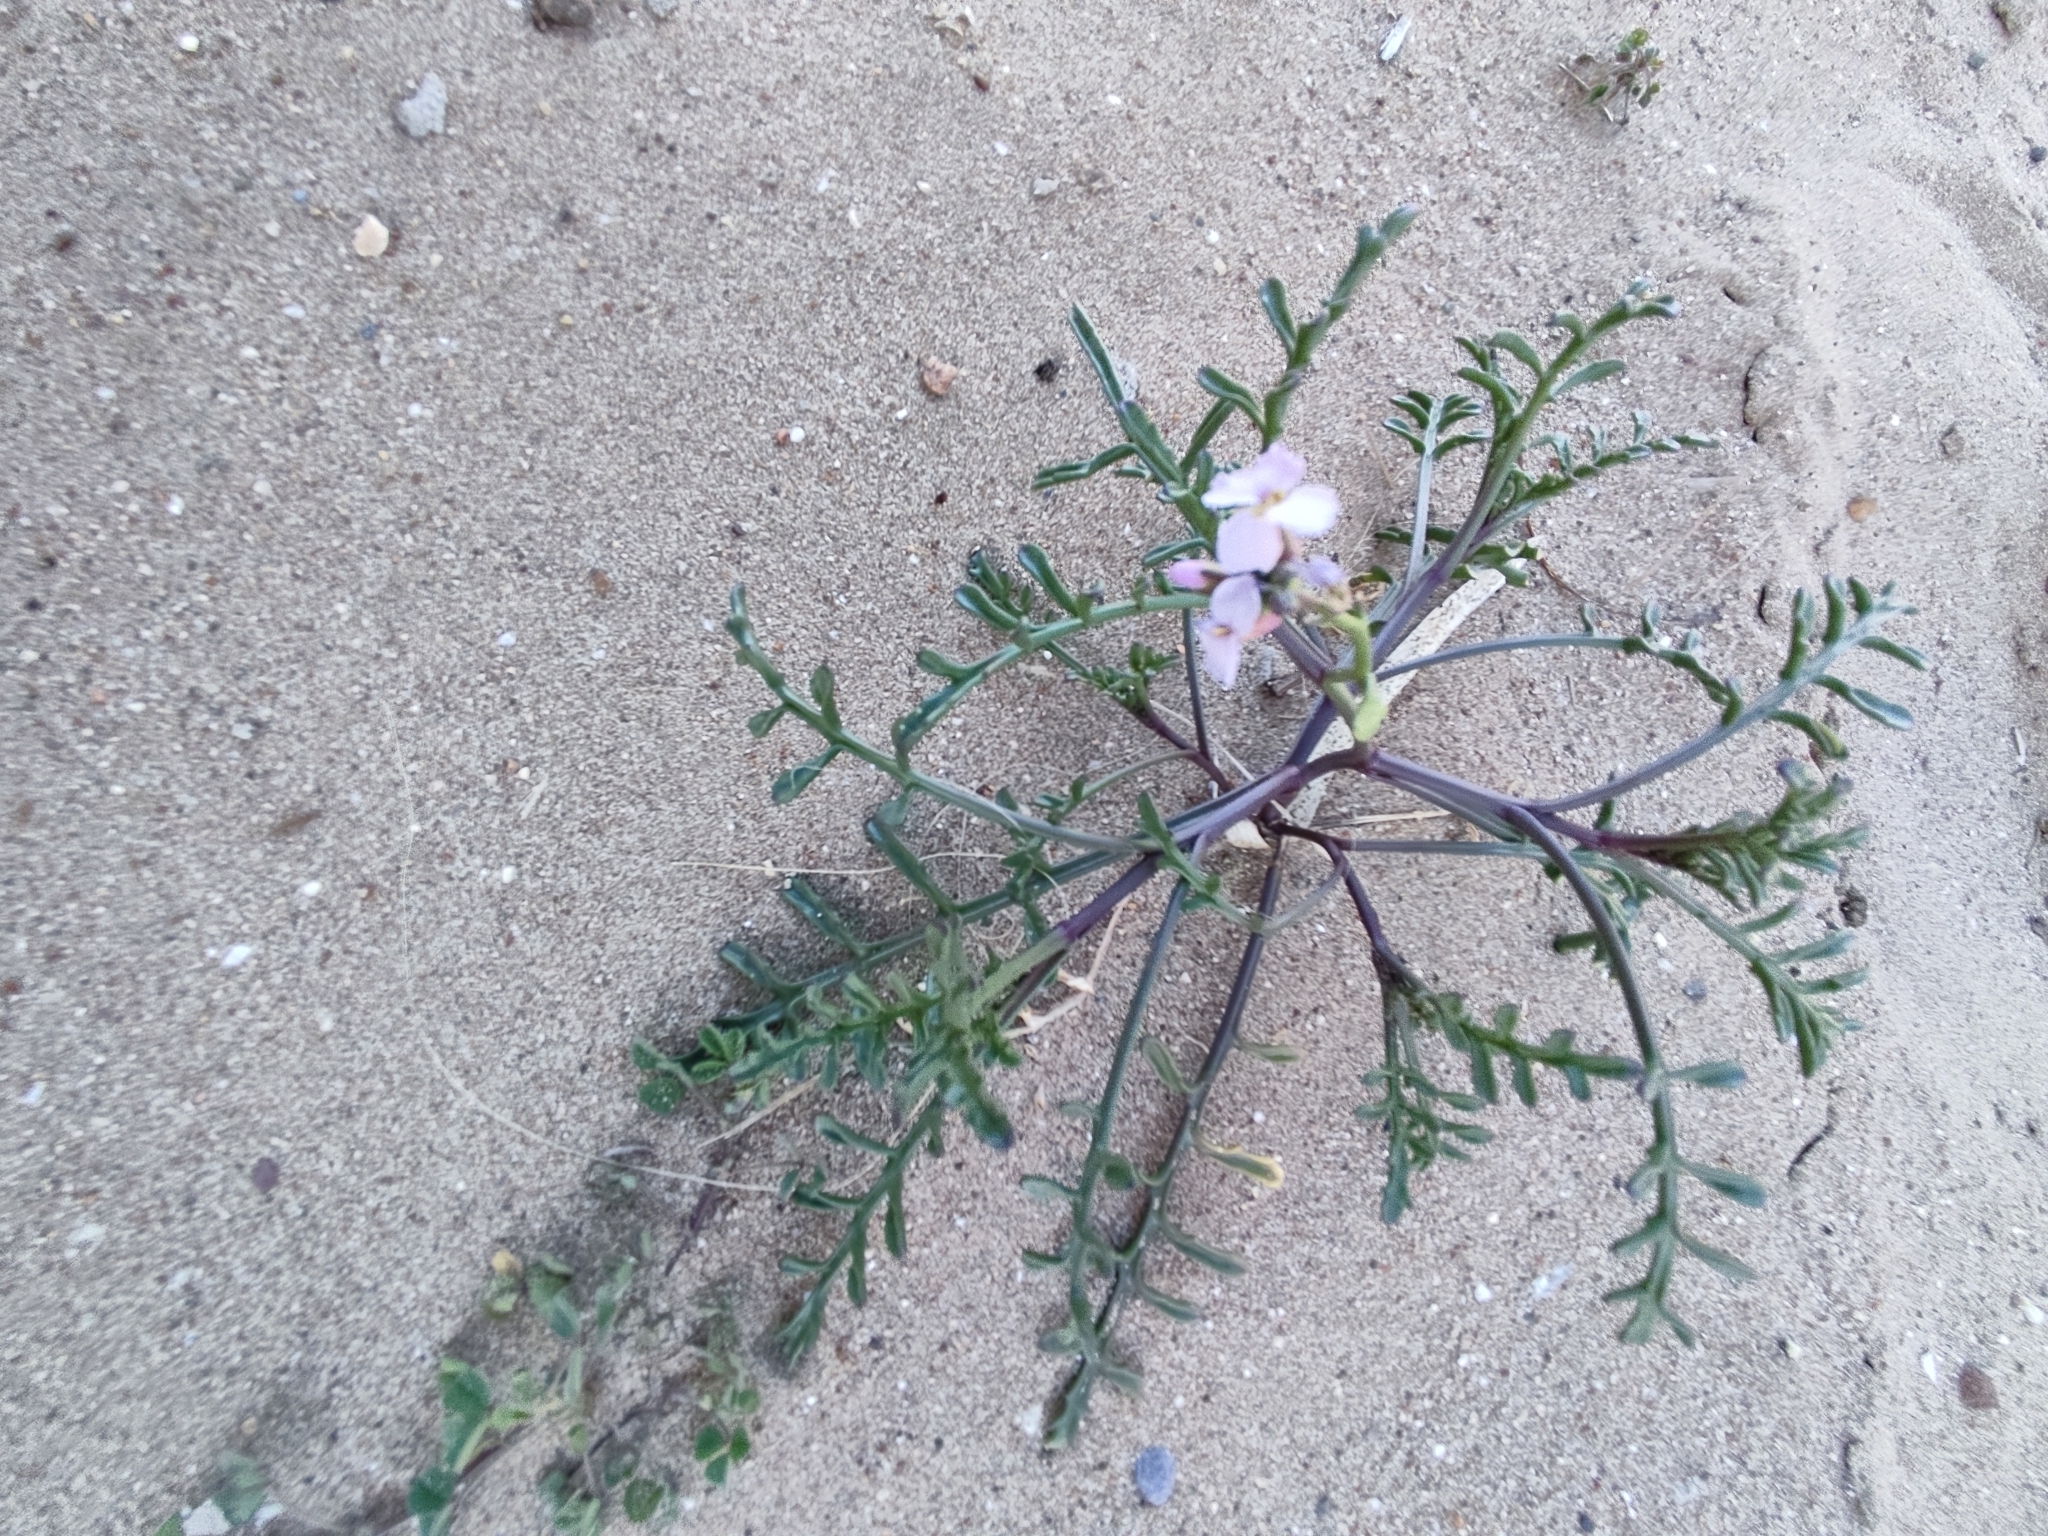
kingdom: Plantae
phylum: Tracheophyta
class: Magnoliopsida
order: Brassicales
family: Brassicaceae
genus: Cakile
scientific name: Cakile maritima
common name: Sea rocket
